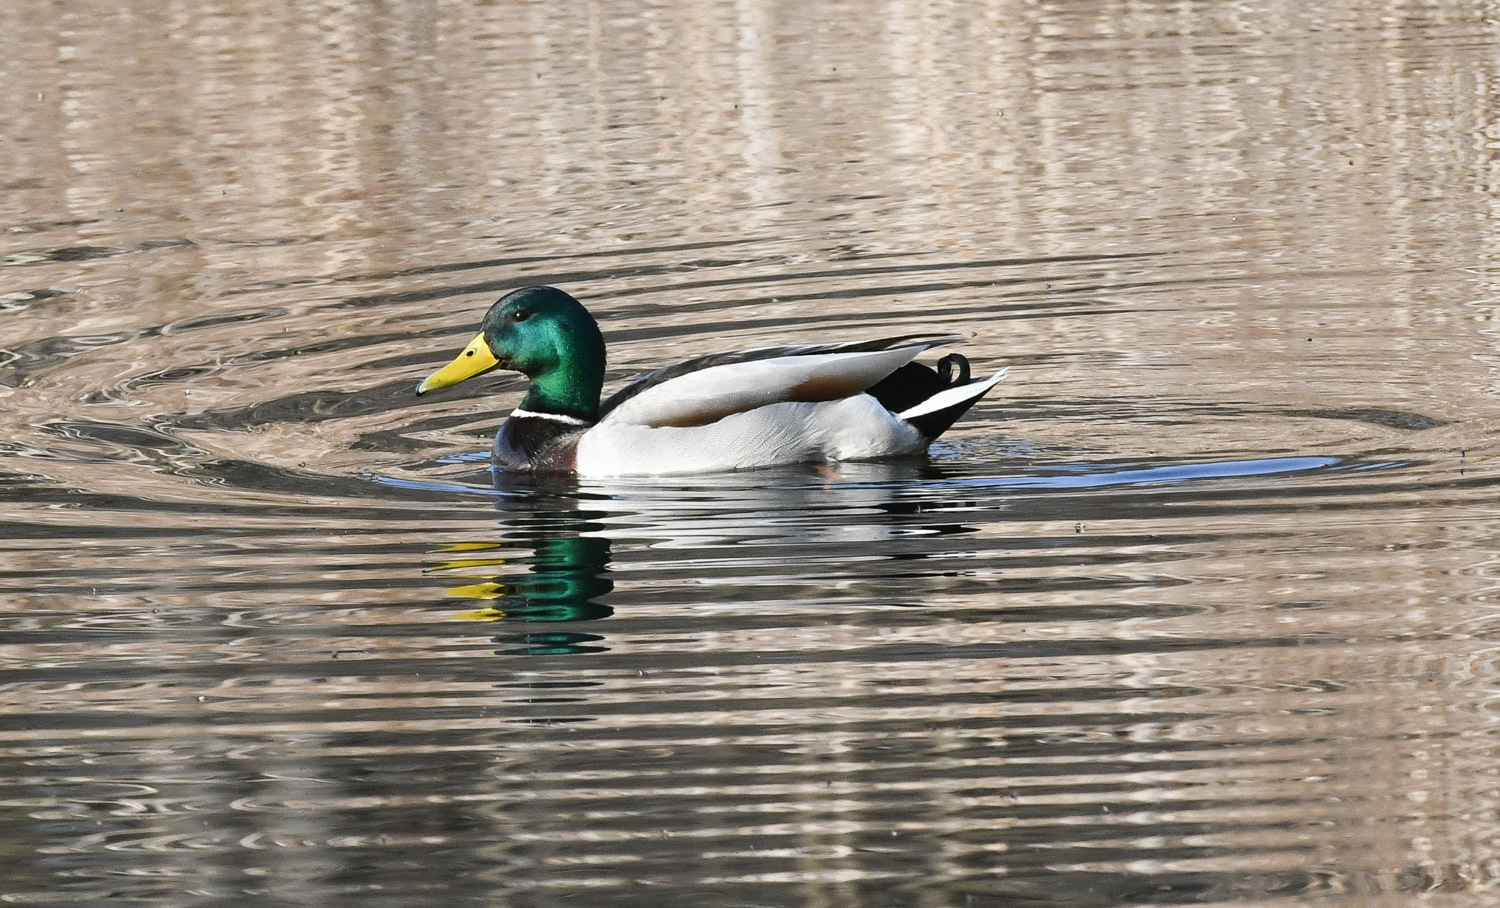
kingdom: Animalia
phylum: Chordata
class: Aves
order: Anseriformes
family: Anatidae
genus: Anas
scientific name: Anas platyrhynchos
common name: Mallard
